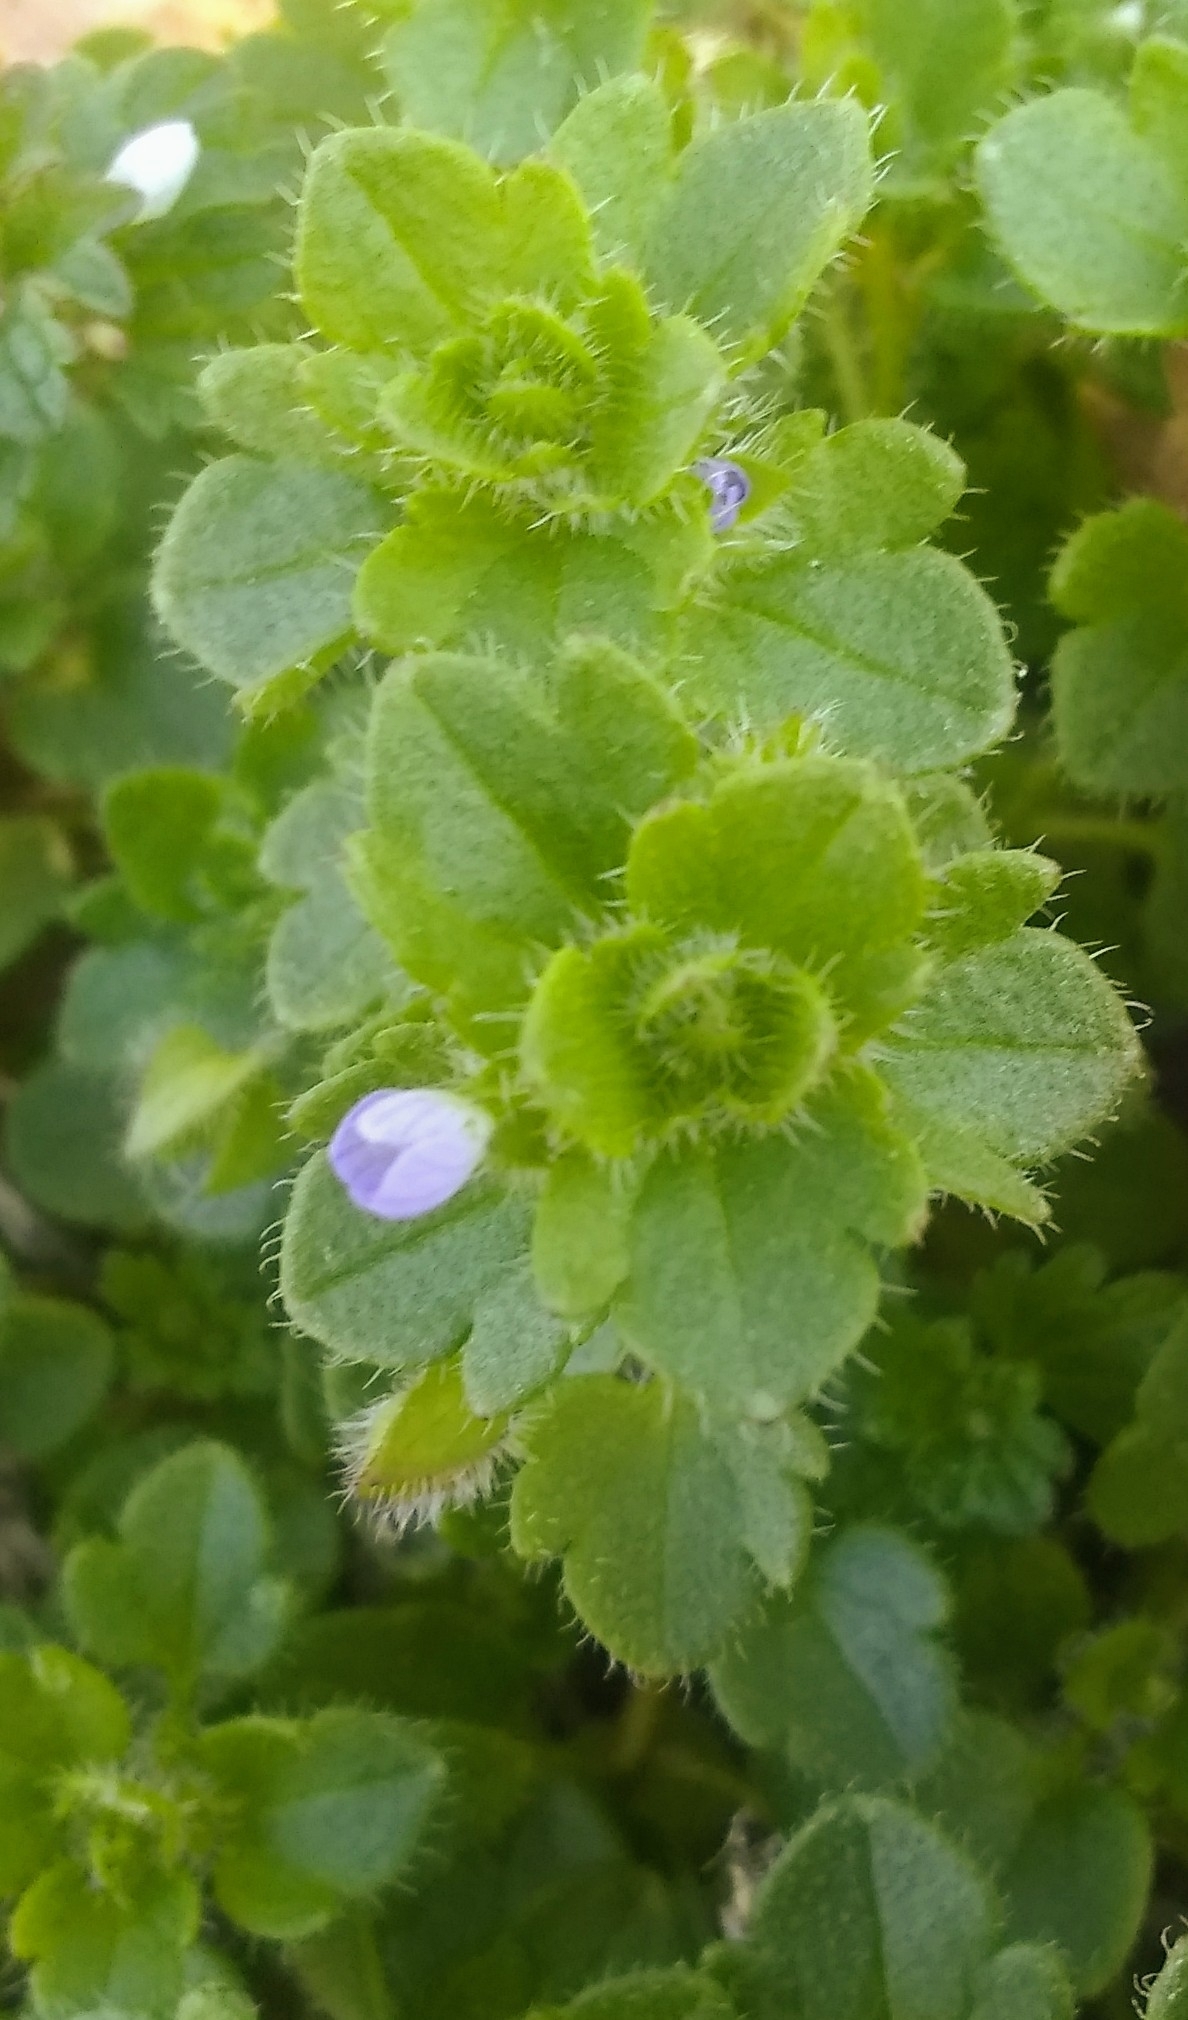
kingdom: Plantae
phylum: Tracheophyta
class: Magnoliopsida
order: Lamiales
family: Plantaginaceae
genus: Veronica
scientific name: Veronica hederifolia
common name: Ivy-leaved speedwell
